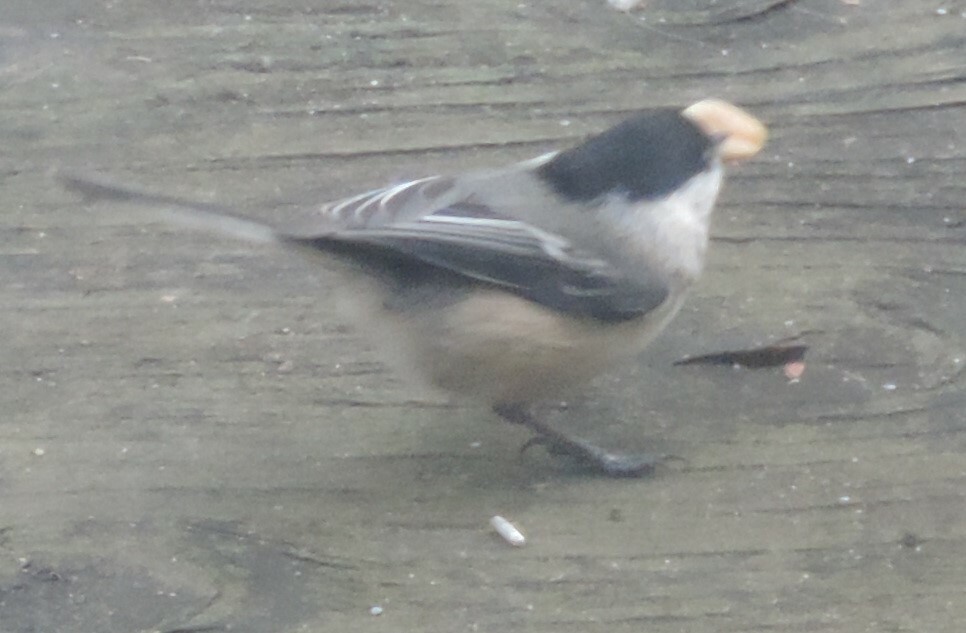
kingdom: Animalia
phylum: Chordata
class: Aves
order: Passeriformes
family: Paridae
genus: Poecile
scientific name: Poecile atricapillus
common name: Black-capped chickadee
